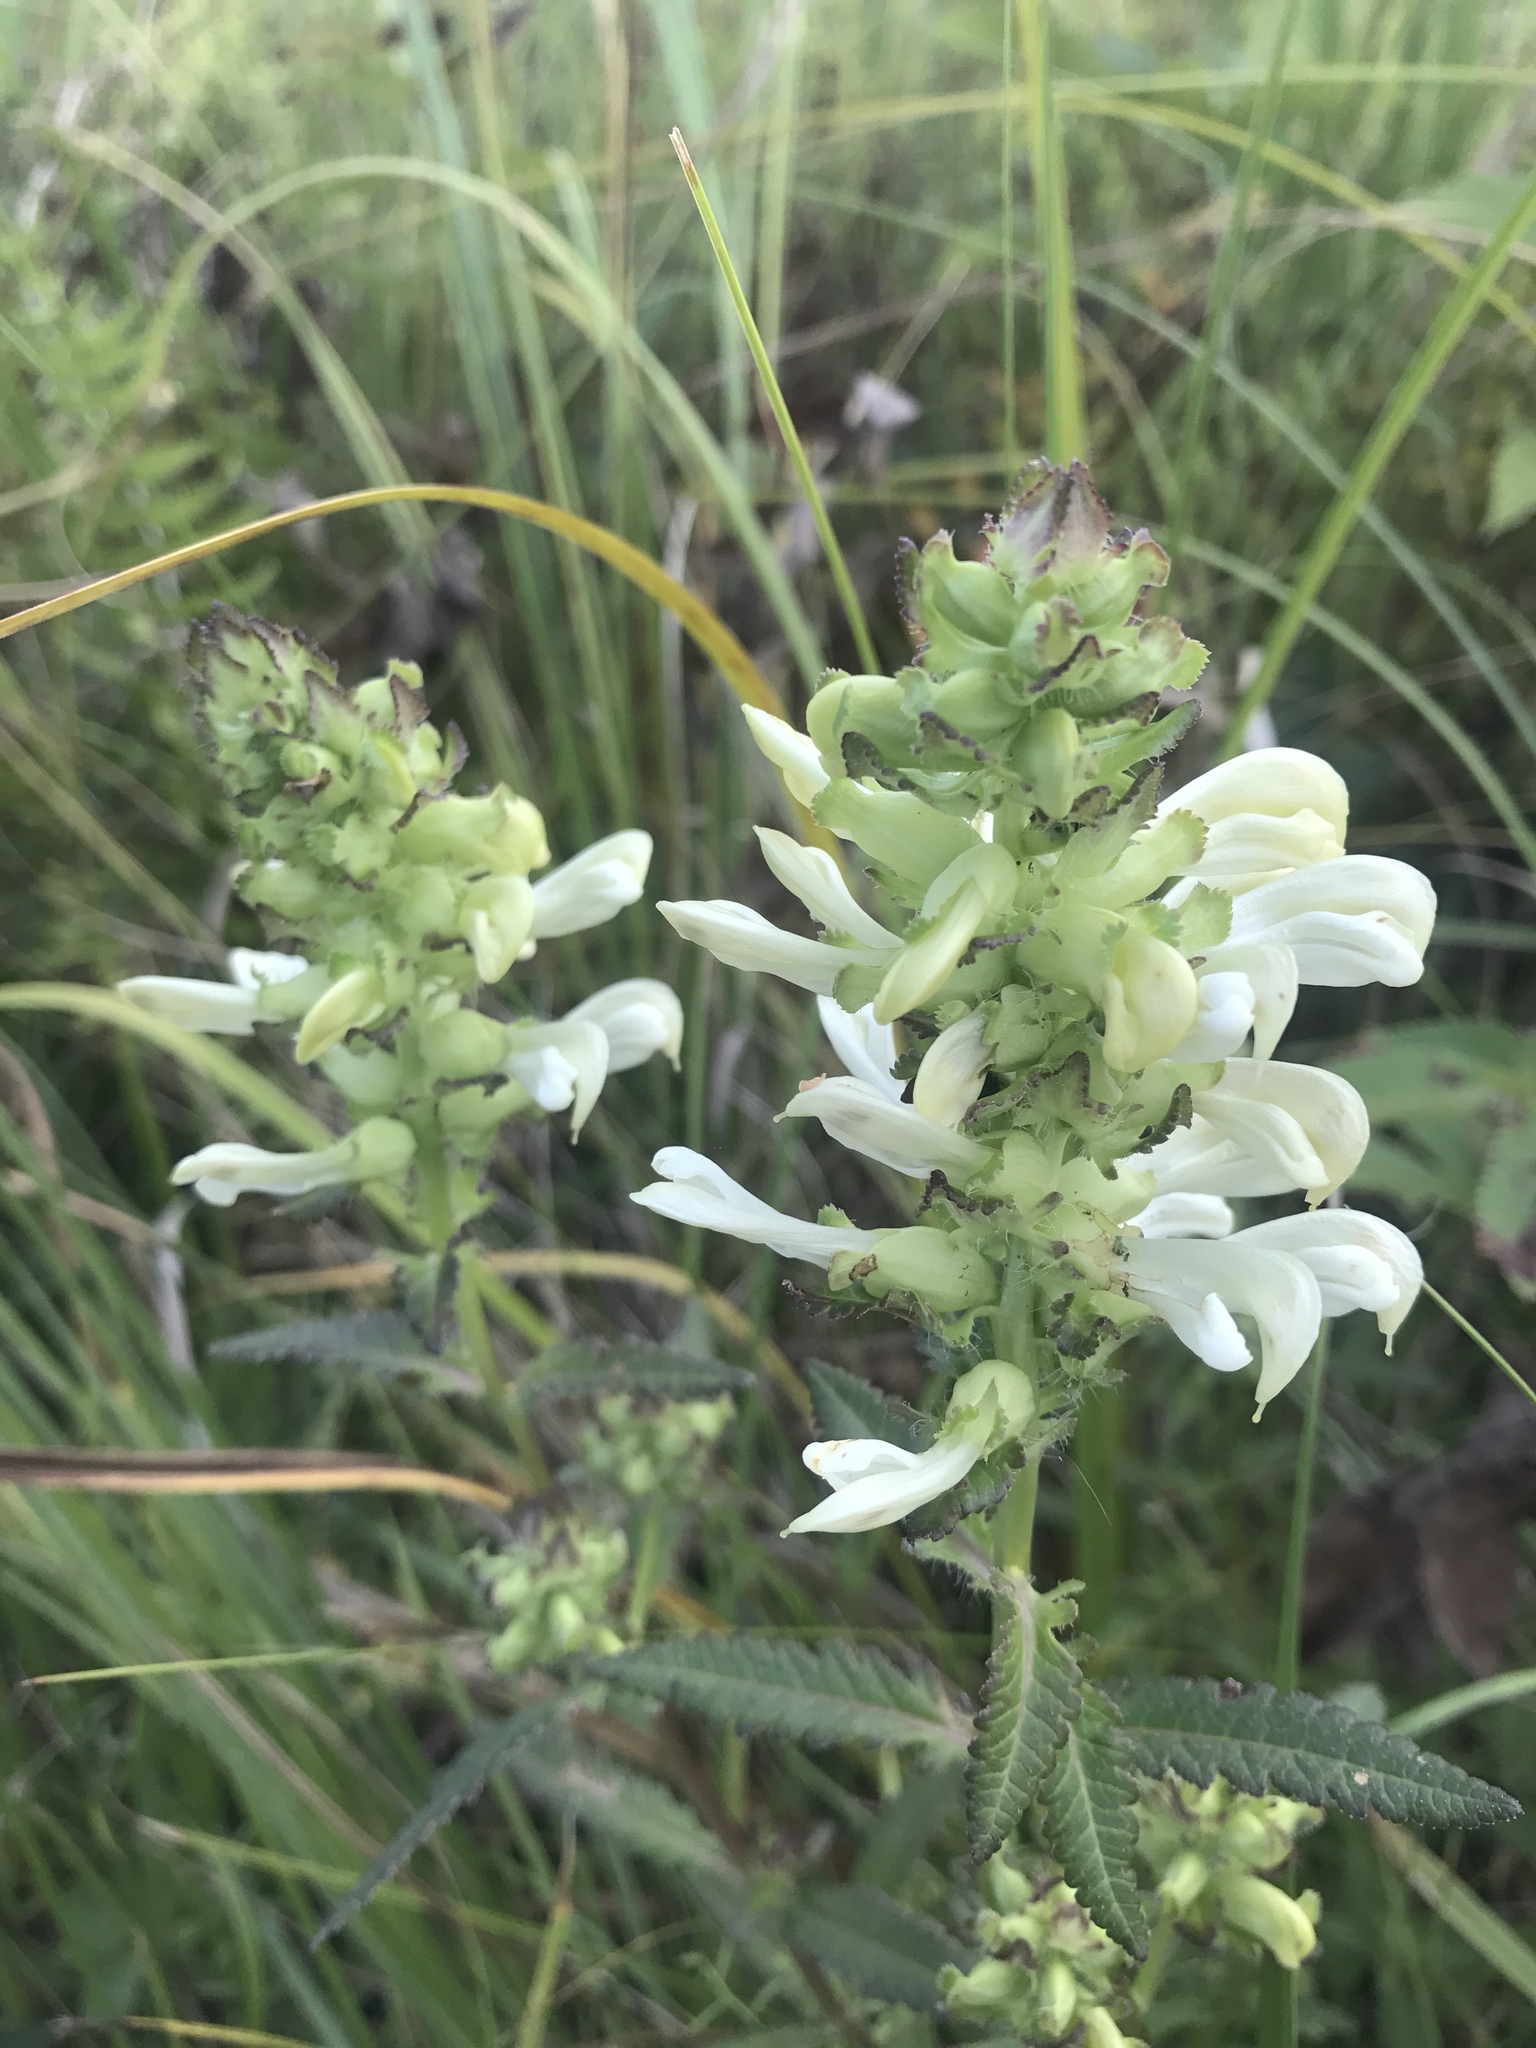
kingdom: Plantae
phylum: Tracheophyta
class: Magnoliopsida
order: Lamiales
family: Orobanchaceae
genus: Pedicularis
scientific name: Pedicularis lanceolata
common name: Swamp lousewort
